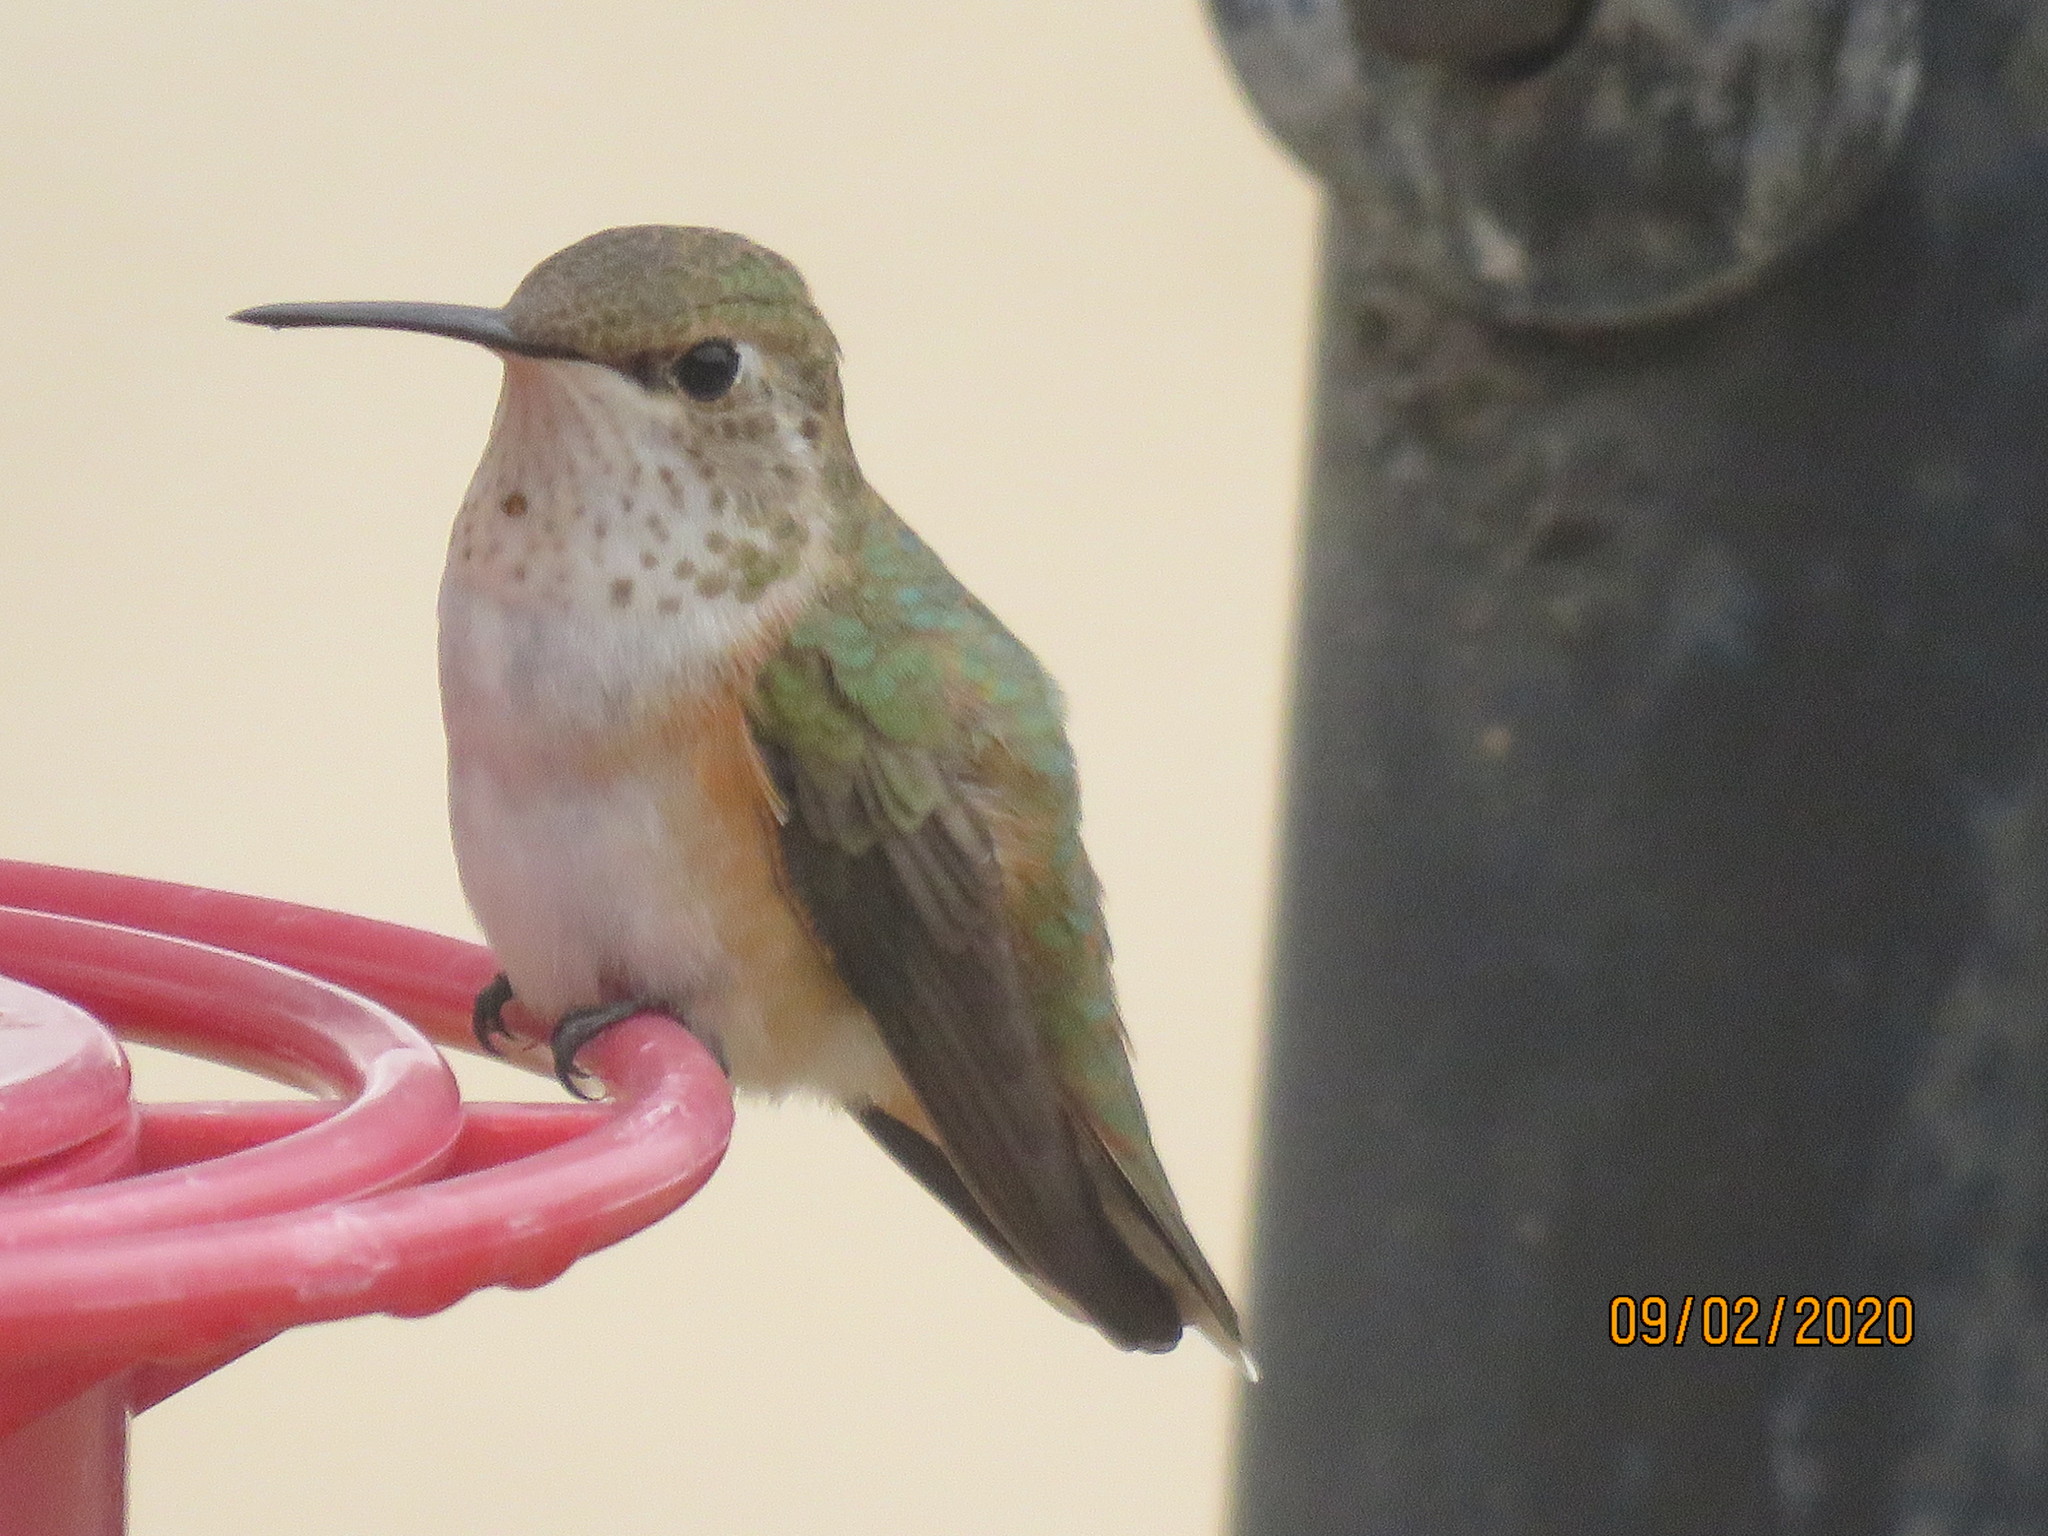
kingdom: Animalia
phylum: Chordata
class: Aves
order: Apodiformes
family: Trochilidae
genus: Selasphorus
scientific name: Selasphorus rufus
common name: Rufous hummingbird
